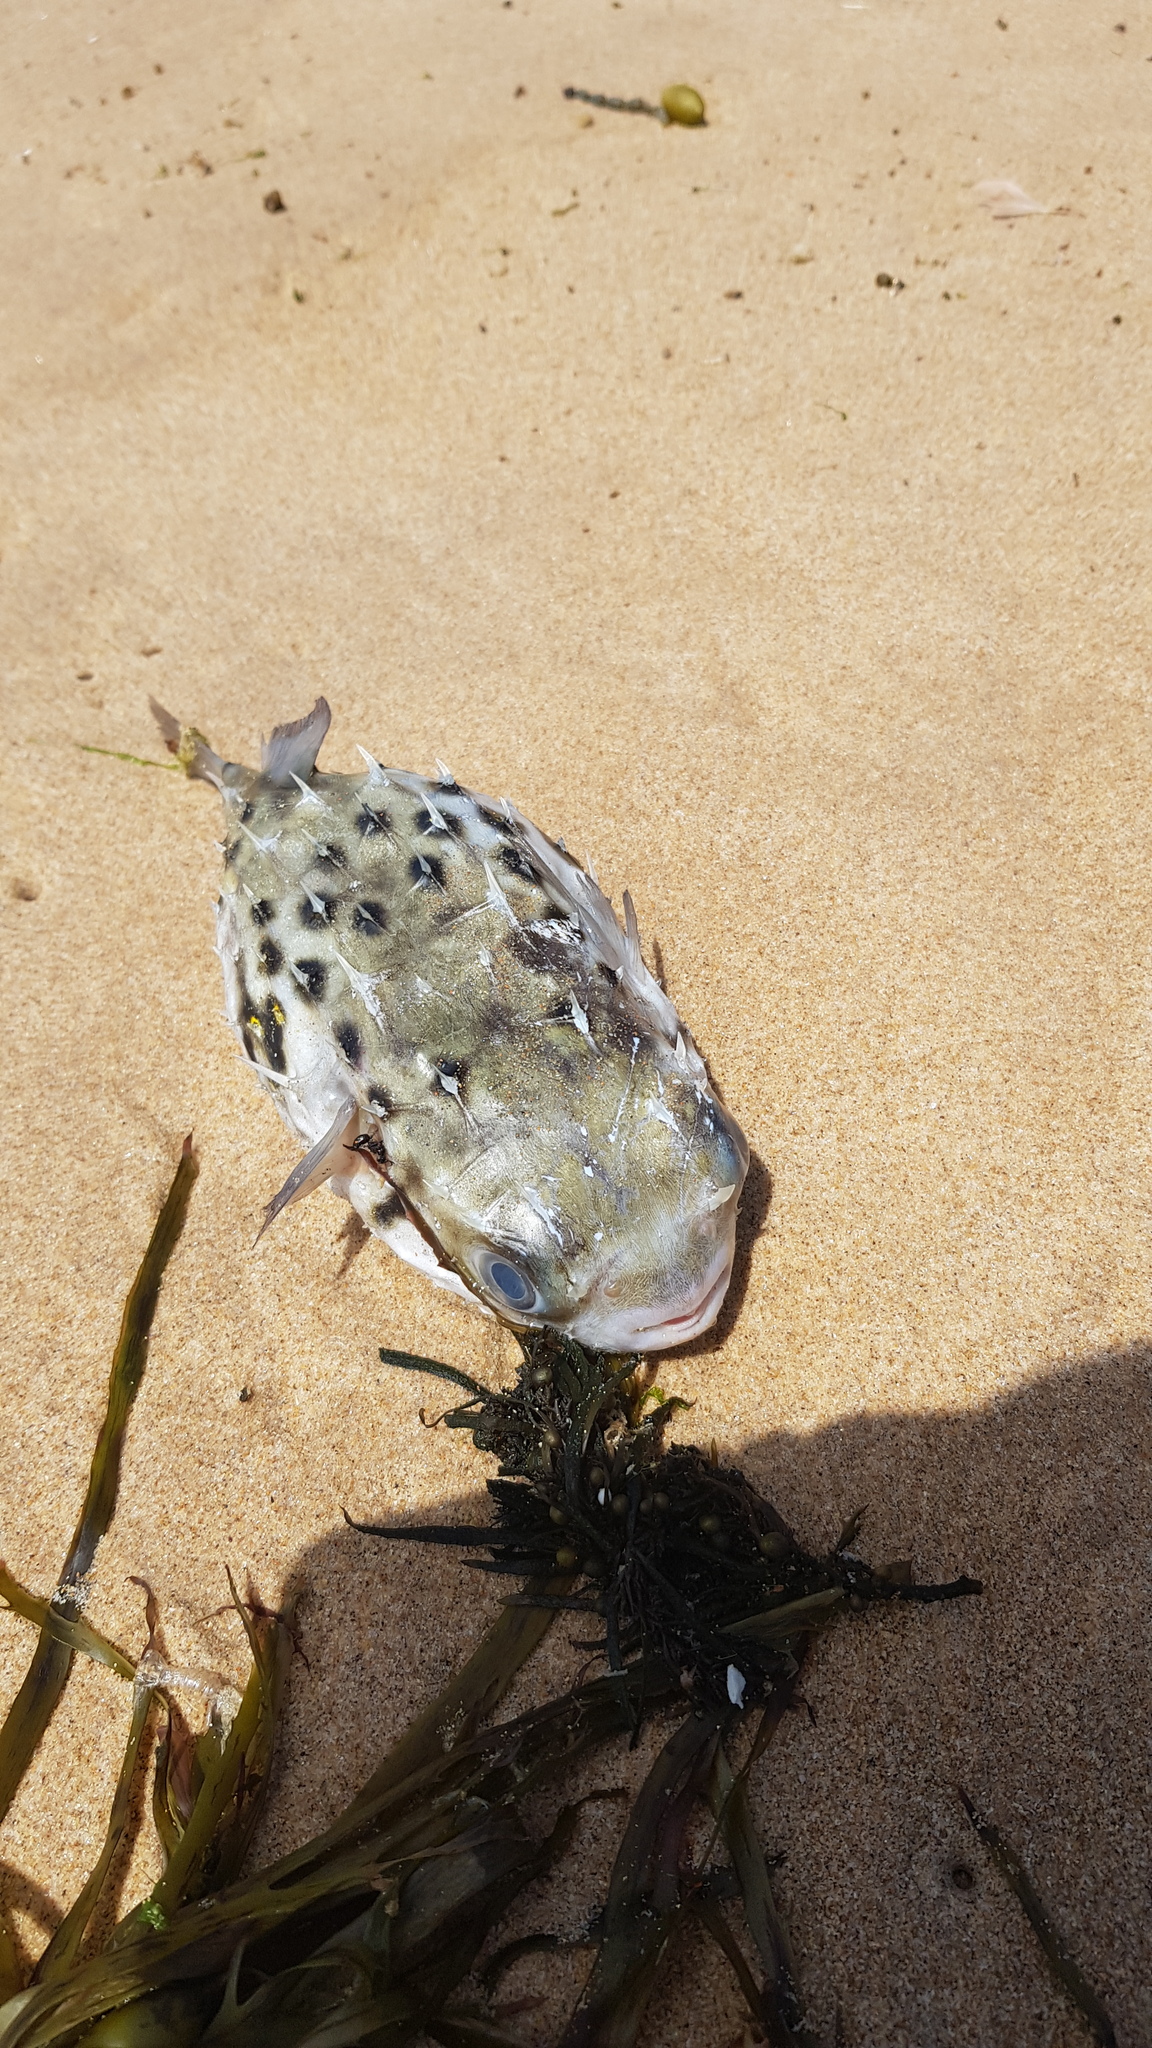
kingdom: Animalia
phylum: Chordata
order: Tetraodontiformes
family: Diodontidae
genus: Allomycterus
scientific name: Allomycterus pilatus
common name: No common name
